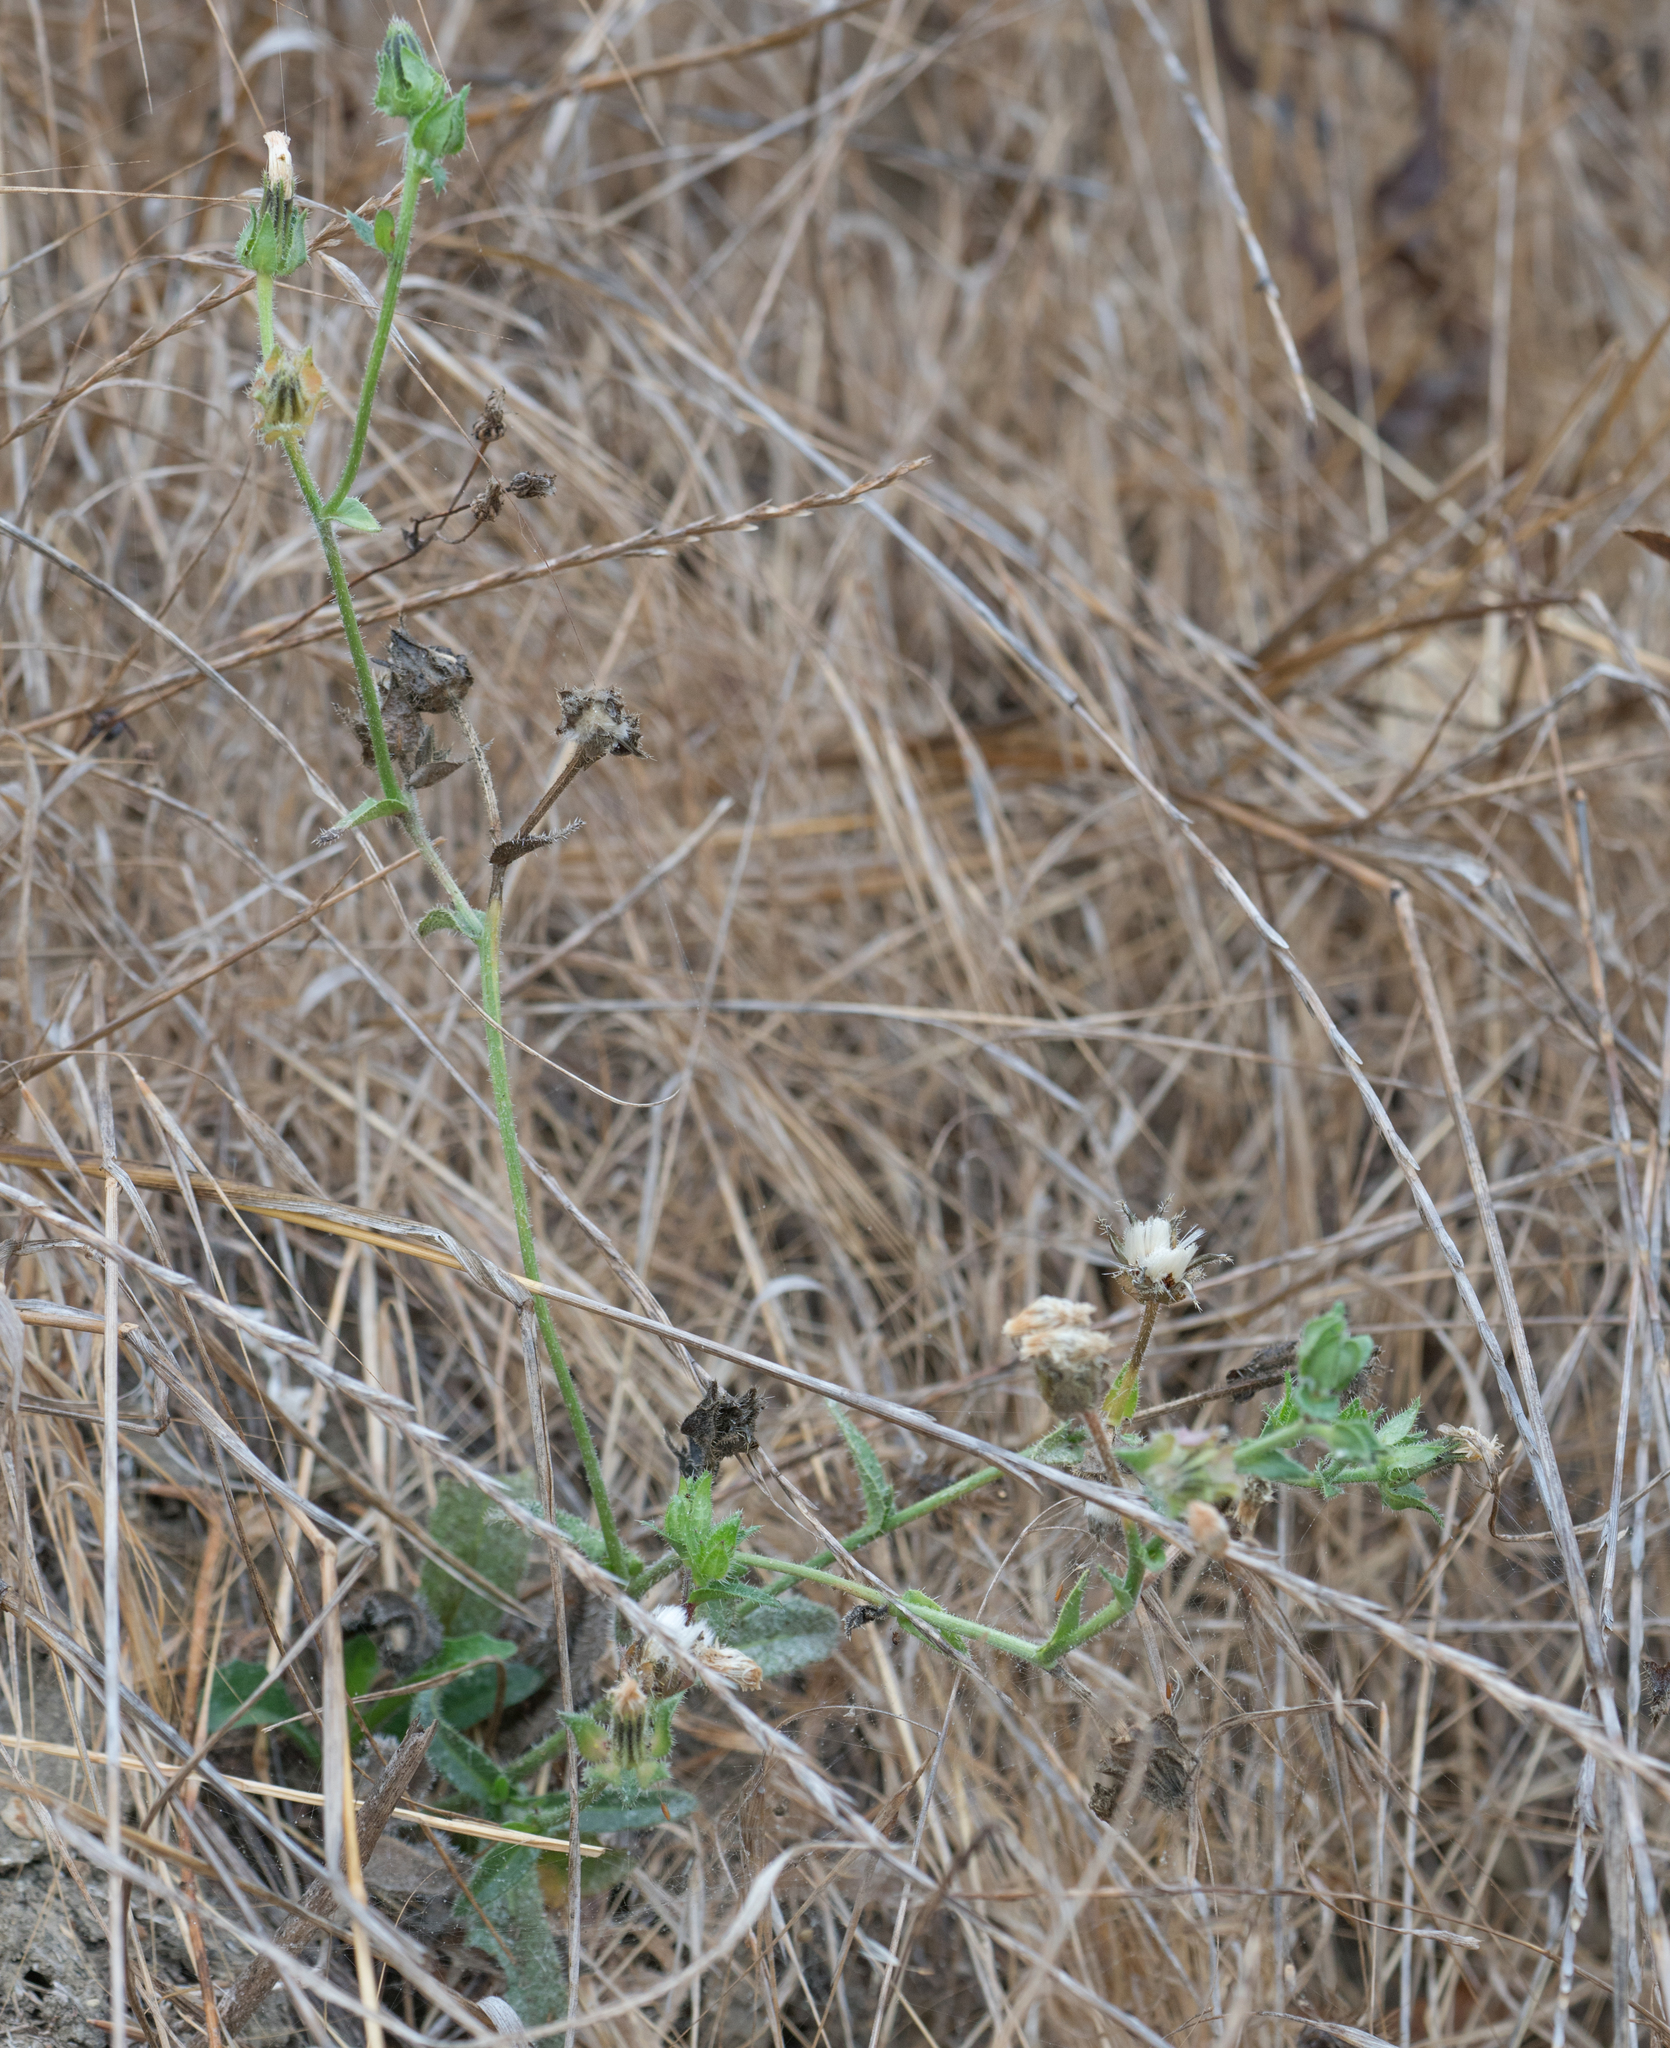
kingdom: Plantae
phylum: Tracheophyta
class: Magnoliopsida
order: Asterales
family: Asteraceae
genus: Helminthotheca
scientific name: Helminthotheca echioides
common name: Ox-tongue
